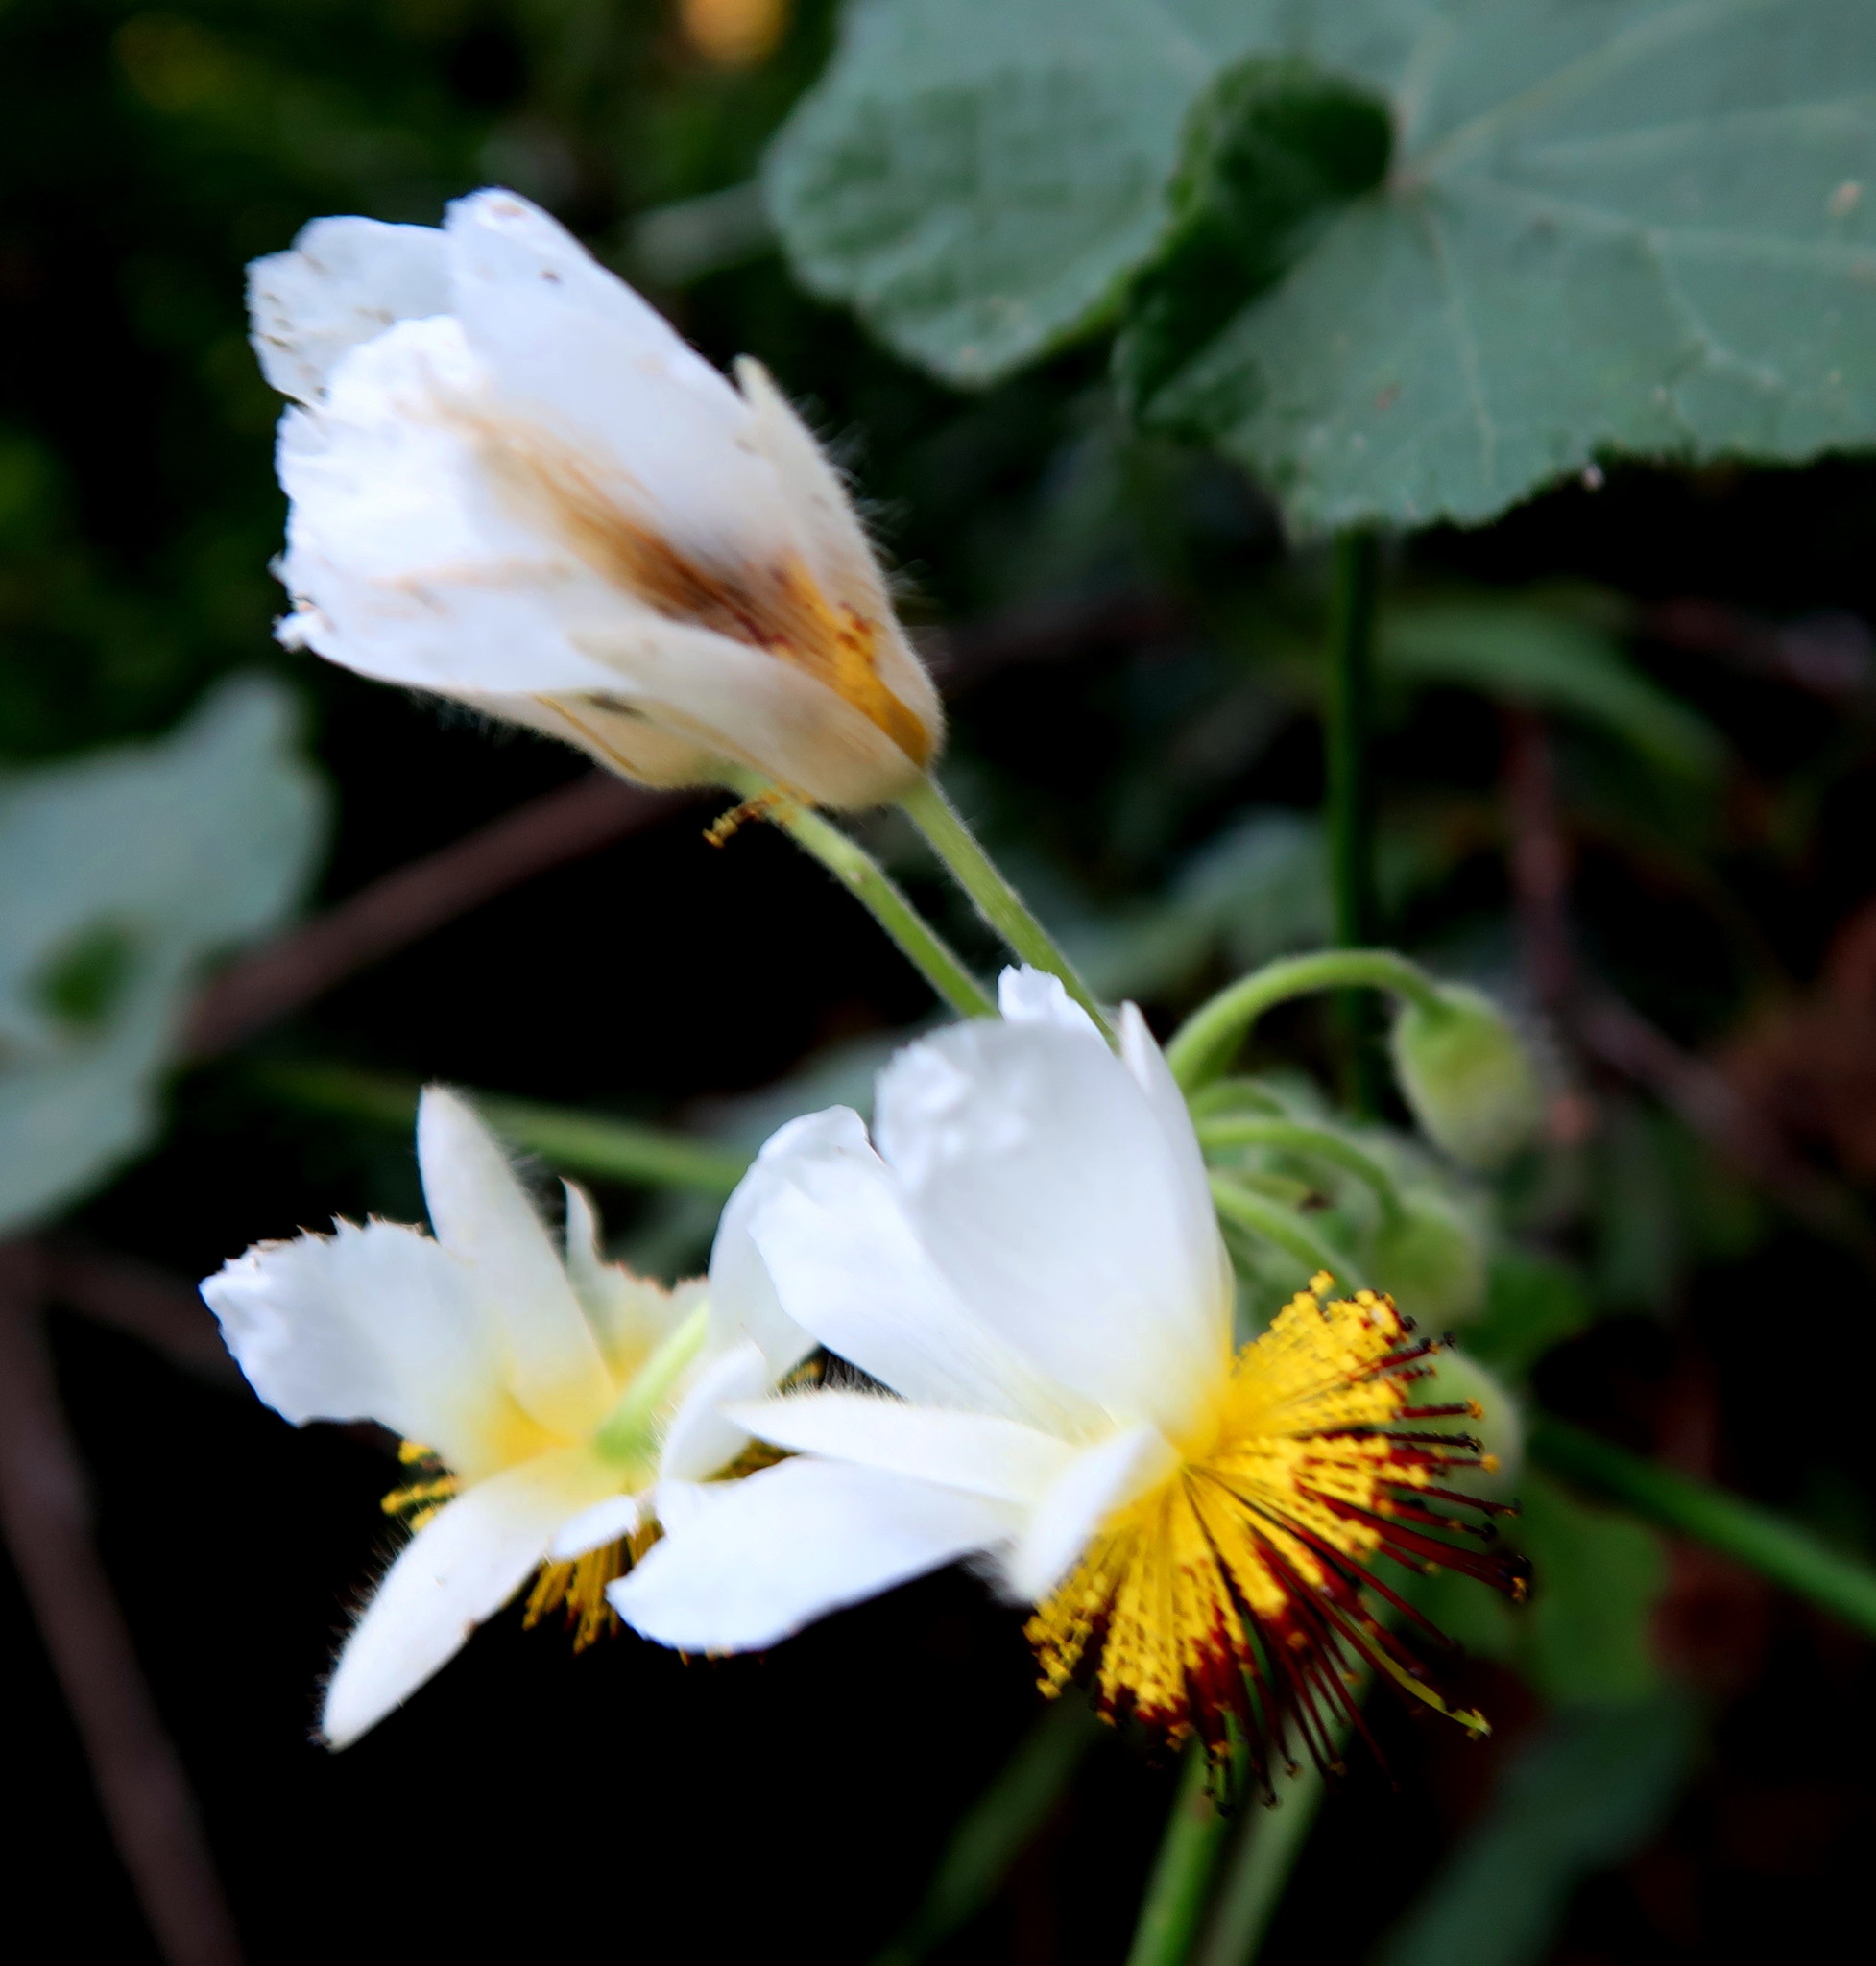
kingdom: Plantae
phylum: Tracheophyta
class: Magnoliopsida
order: Malvales
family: Malvaceae
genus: Sparrmannia
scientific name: Sparrmannia africana
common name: African-hemp
